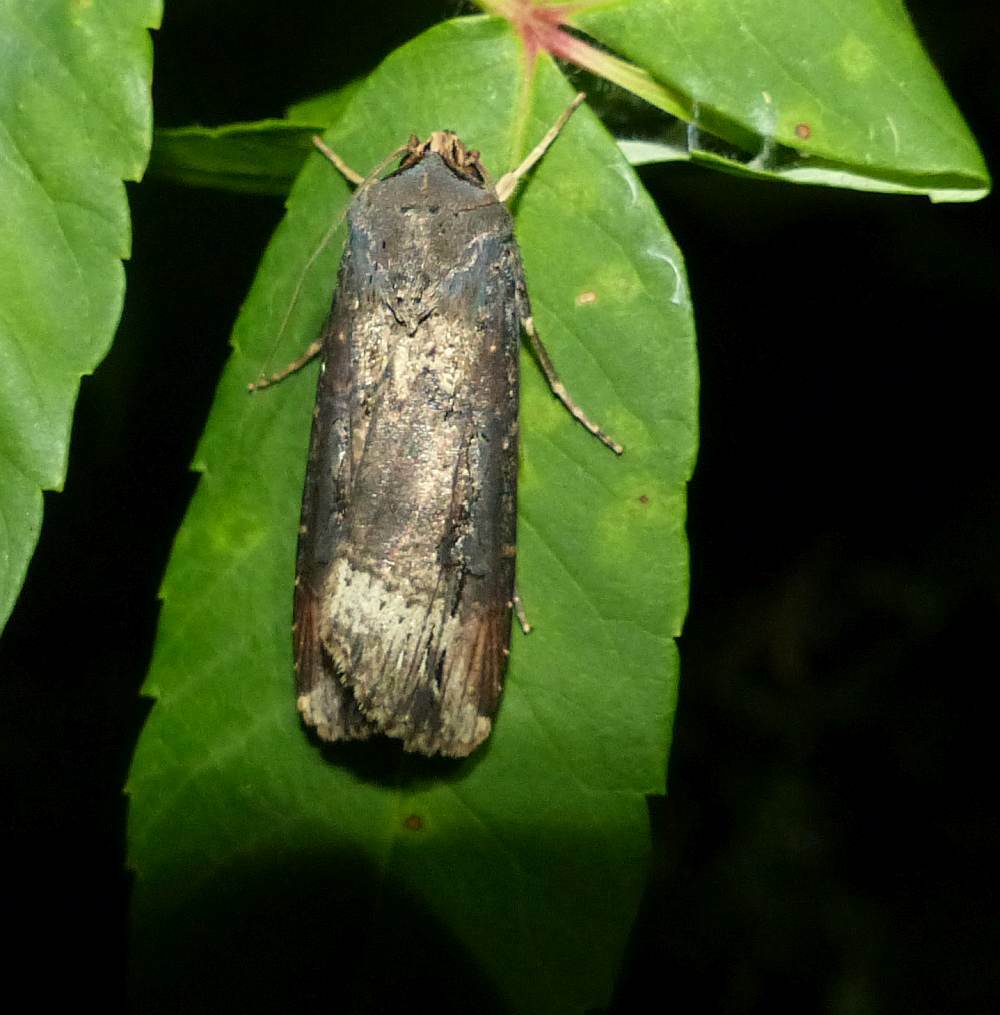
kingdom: Animalia
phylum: Arthropoda
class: Insecta
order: Lepidoptera
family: Noctuidae
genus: Agrotis
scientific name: Agrotis ipsilon
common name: Dark sword-grass
